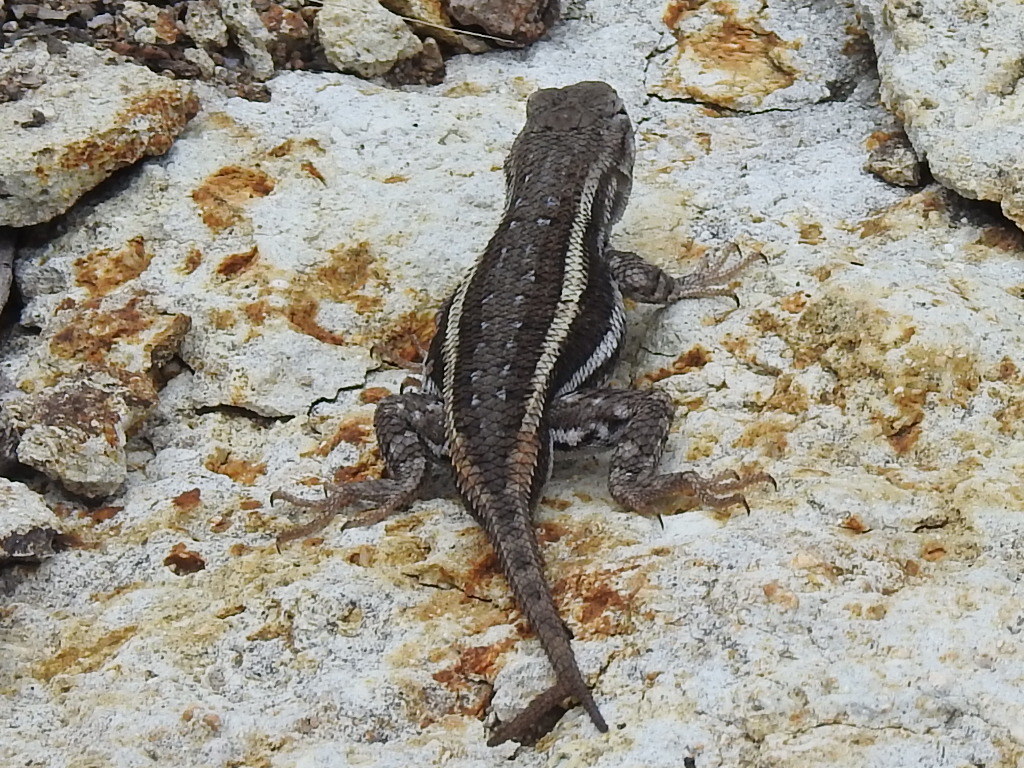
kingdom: Animalia
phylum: Chordata
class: Squamata
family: Phrynosomatidae
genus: Sceloporus
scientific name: Sceloporus virgatus
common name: Striped plateau lizard
